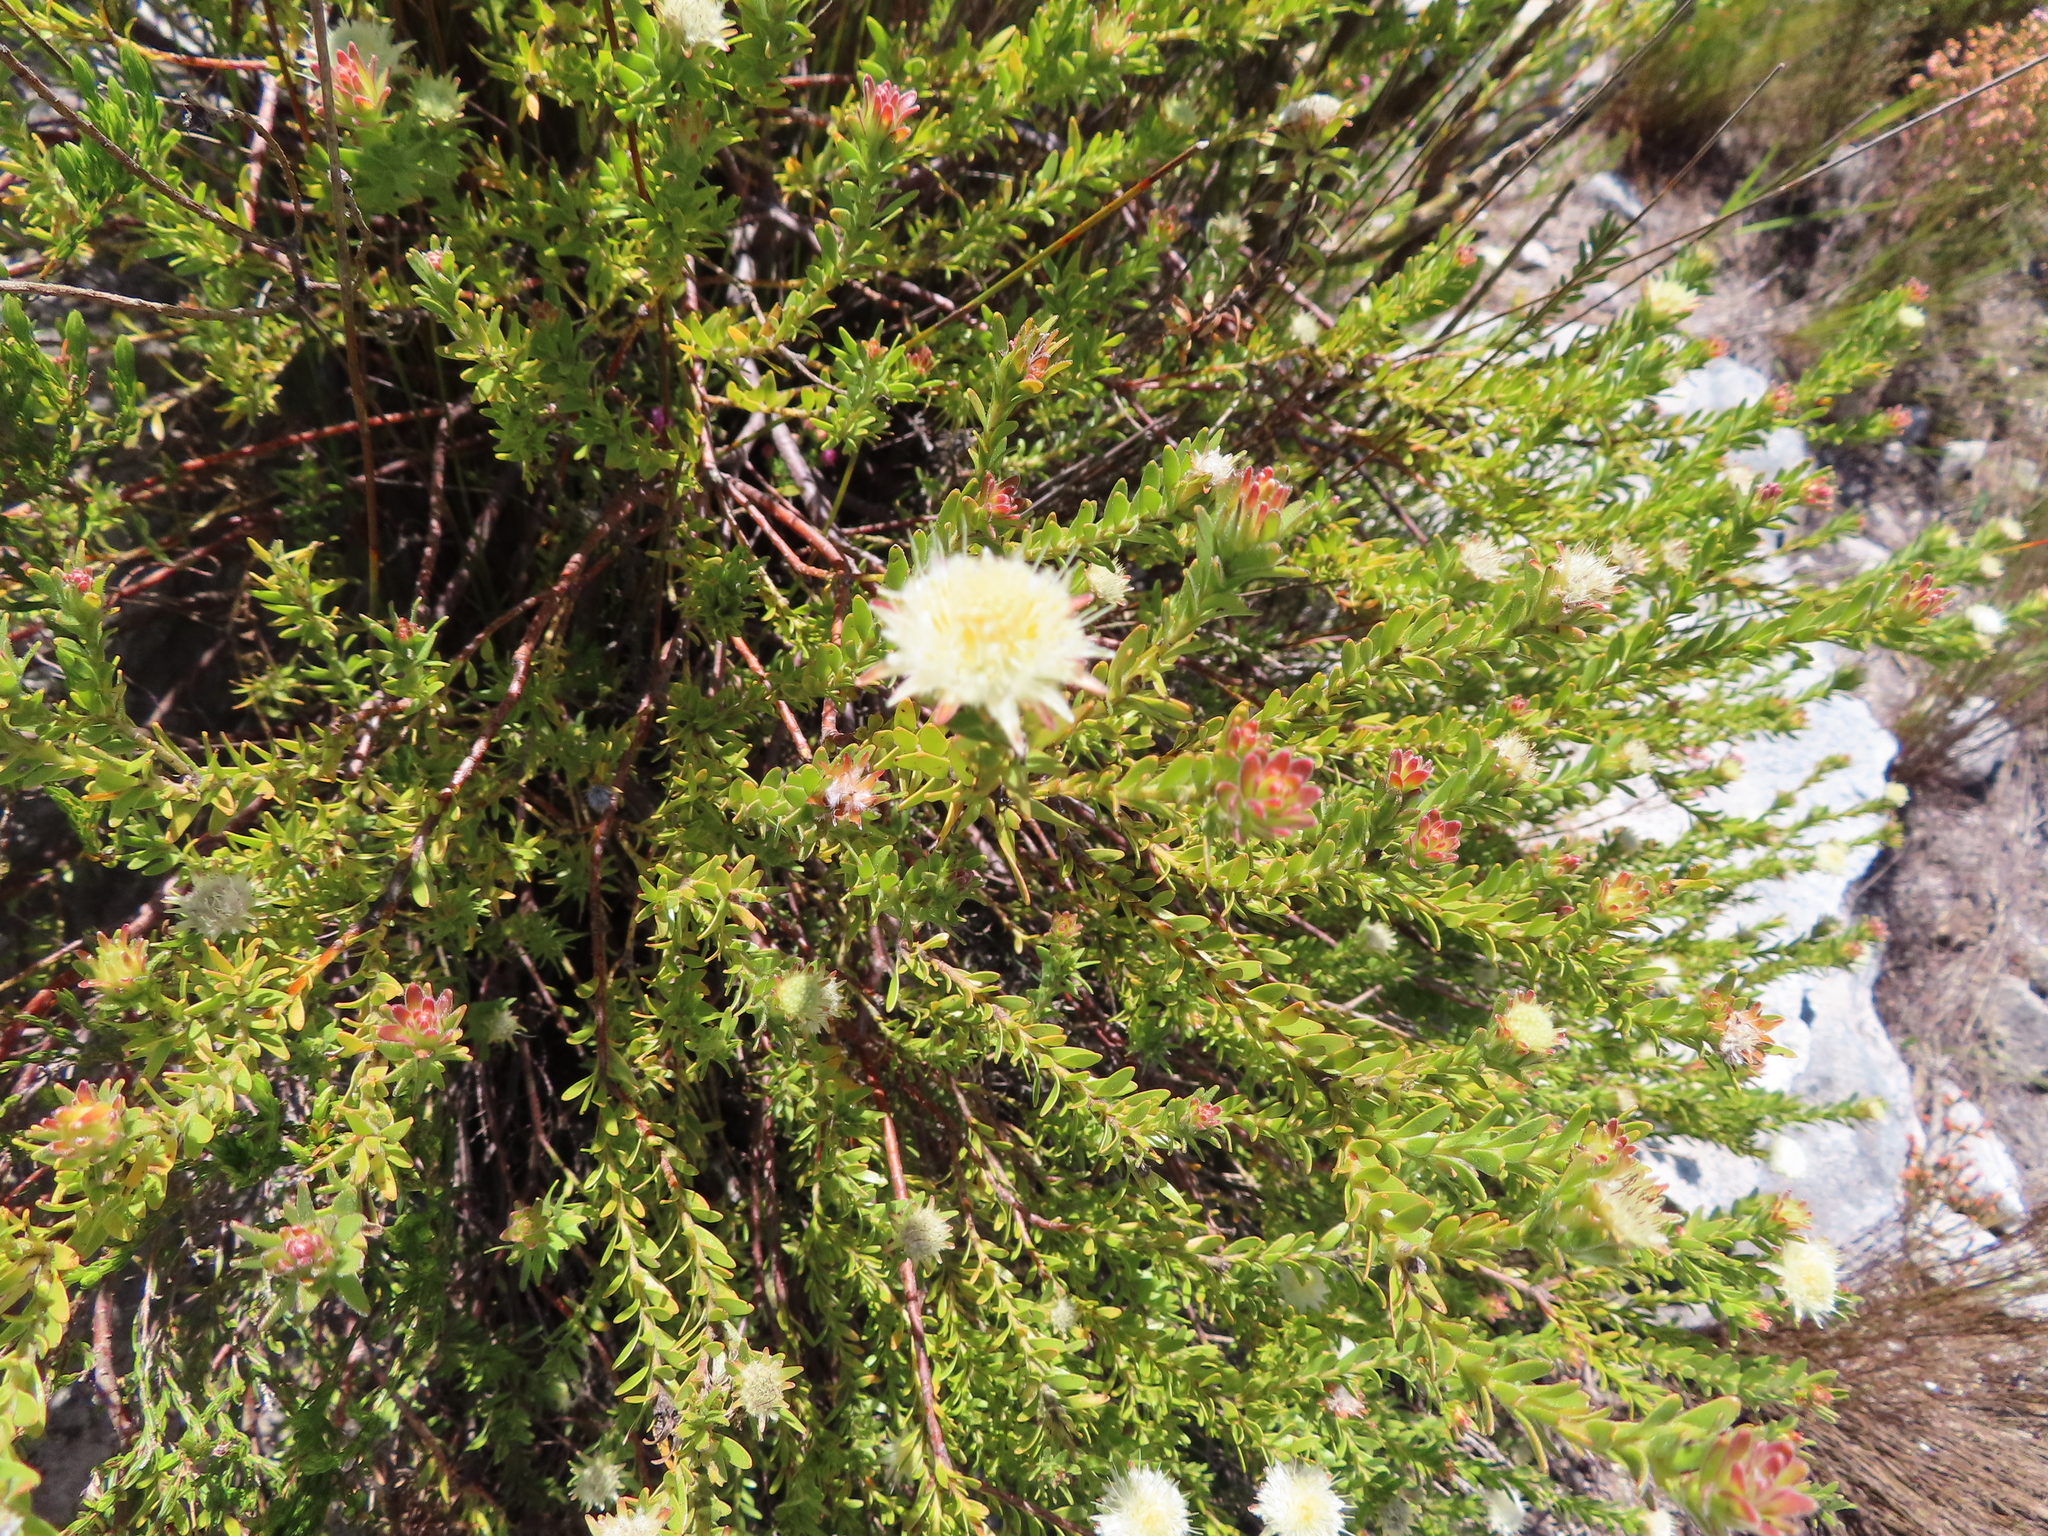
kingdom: Plantae
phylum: Tracheophyta
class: Magnoliopsida
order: Proteales
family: Proteaceae
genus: Diastella
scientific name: Diastella fraterna
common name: Palmiet silkypuff
